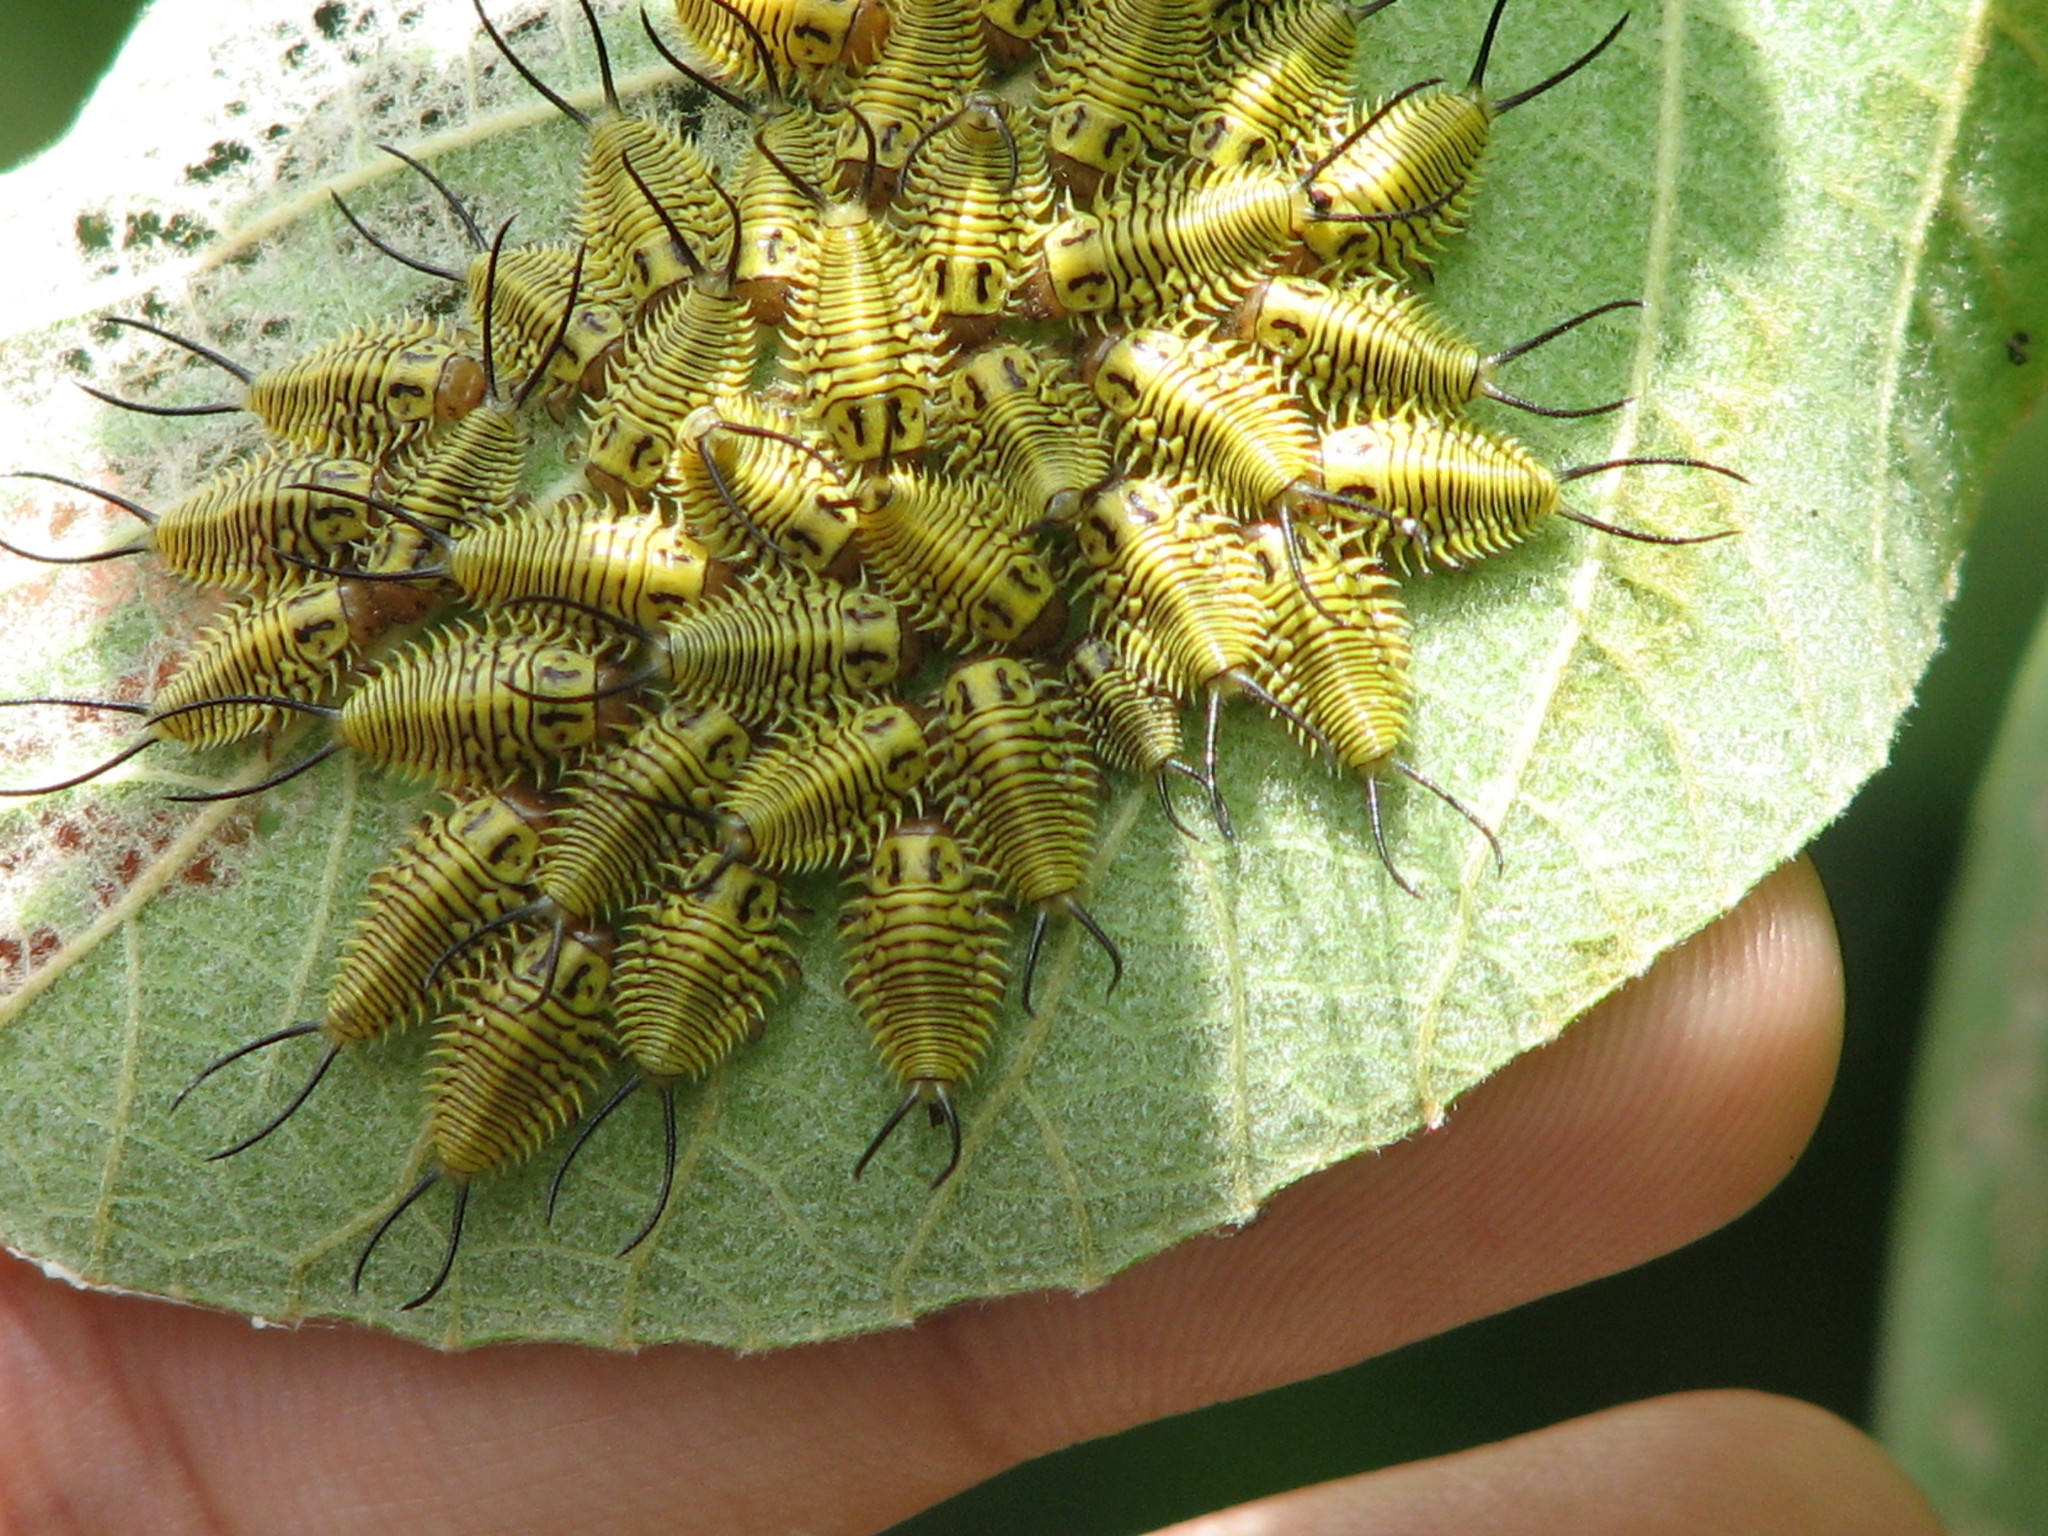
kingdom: Animalia
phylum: Arthropoda
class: Insecta
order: Coleoptera
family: Chrysomelidae
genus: Physonota
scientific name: Physonota alutacea
